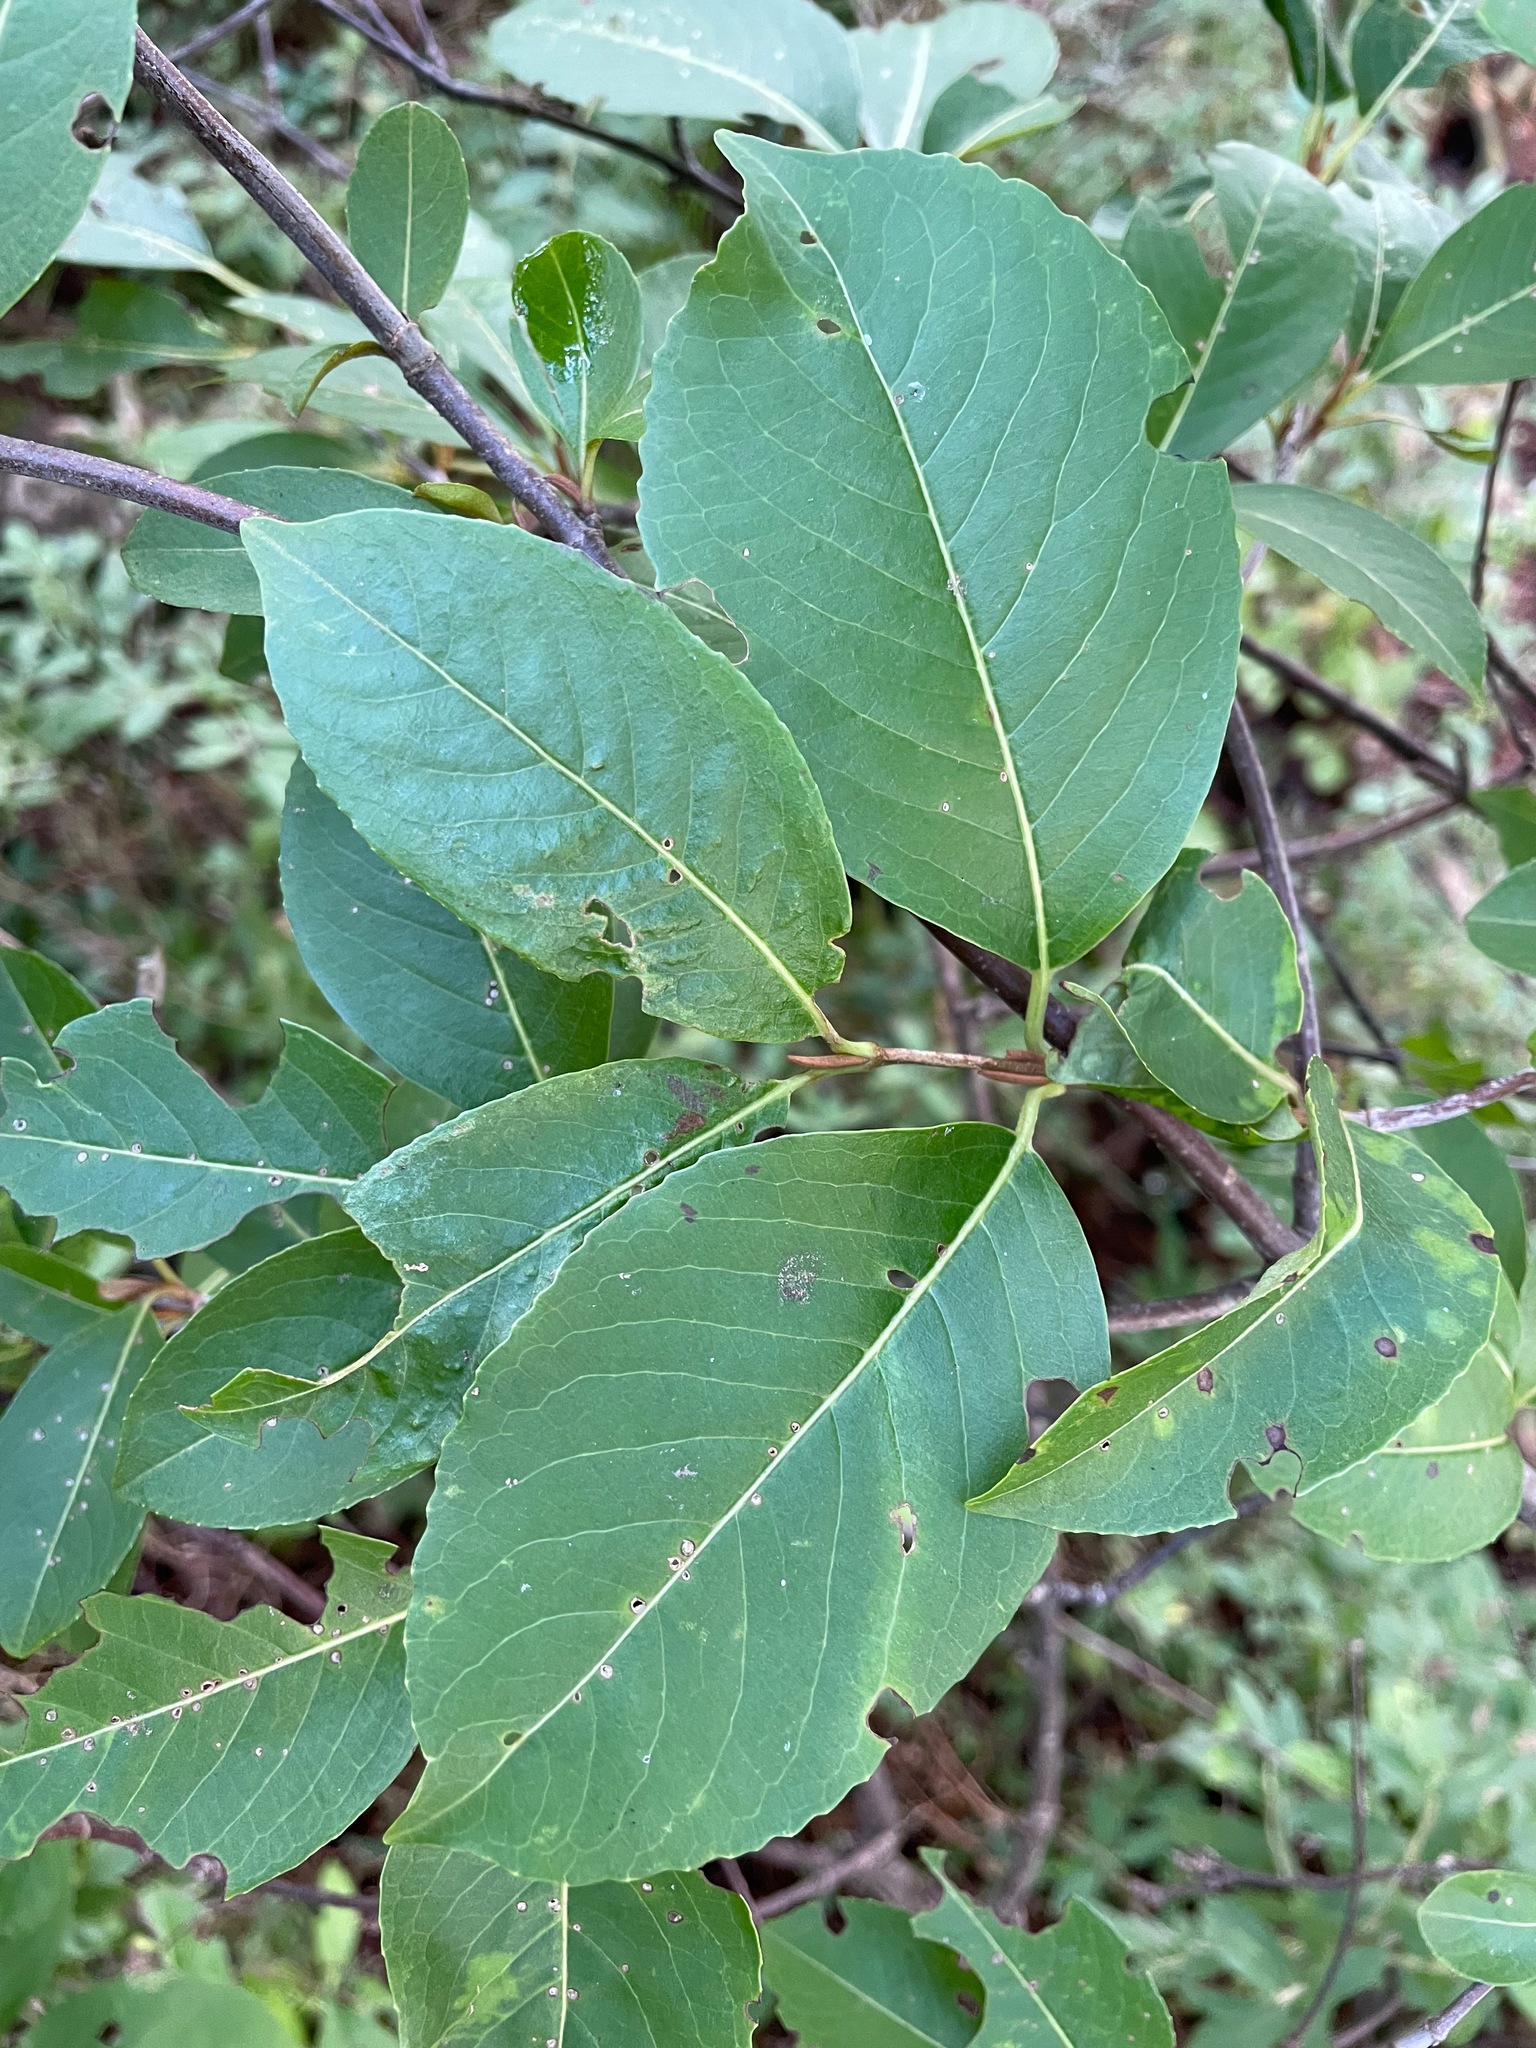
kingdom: Plantae
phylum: Tracheophyta
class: Magnoliopsida
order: Dipsacales
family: Viburnaceae
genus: Viburnum
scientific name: Viburnum cassinoides
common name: Swamp haw
